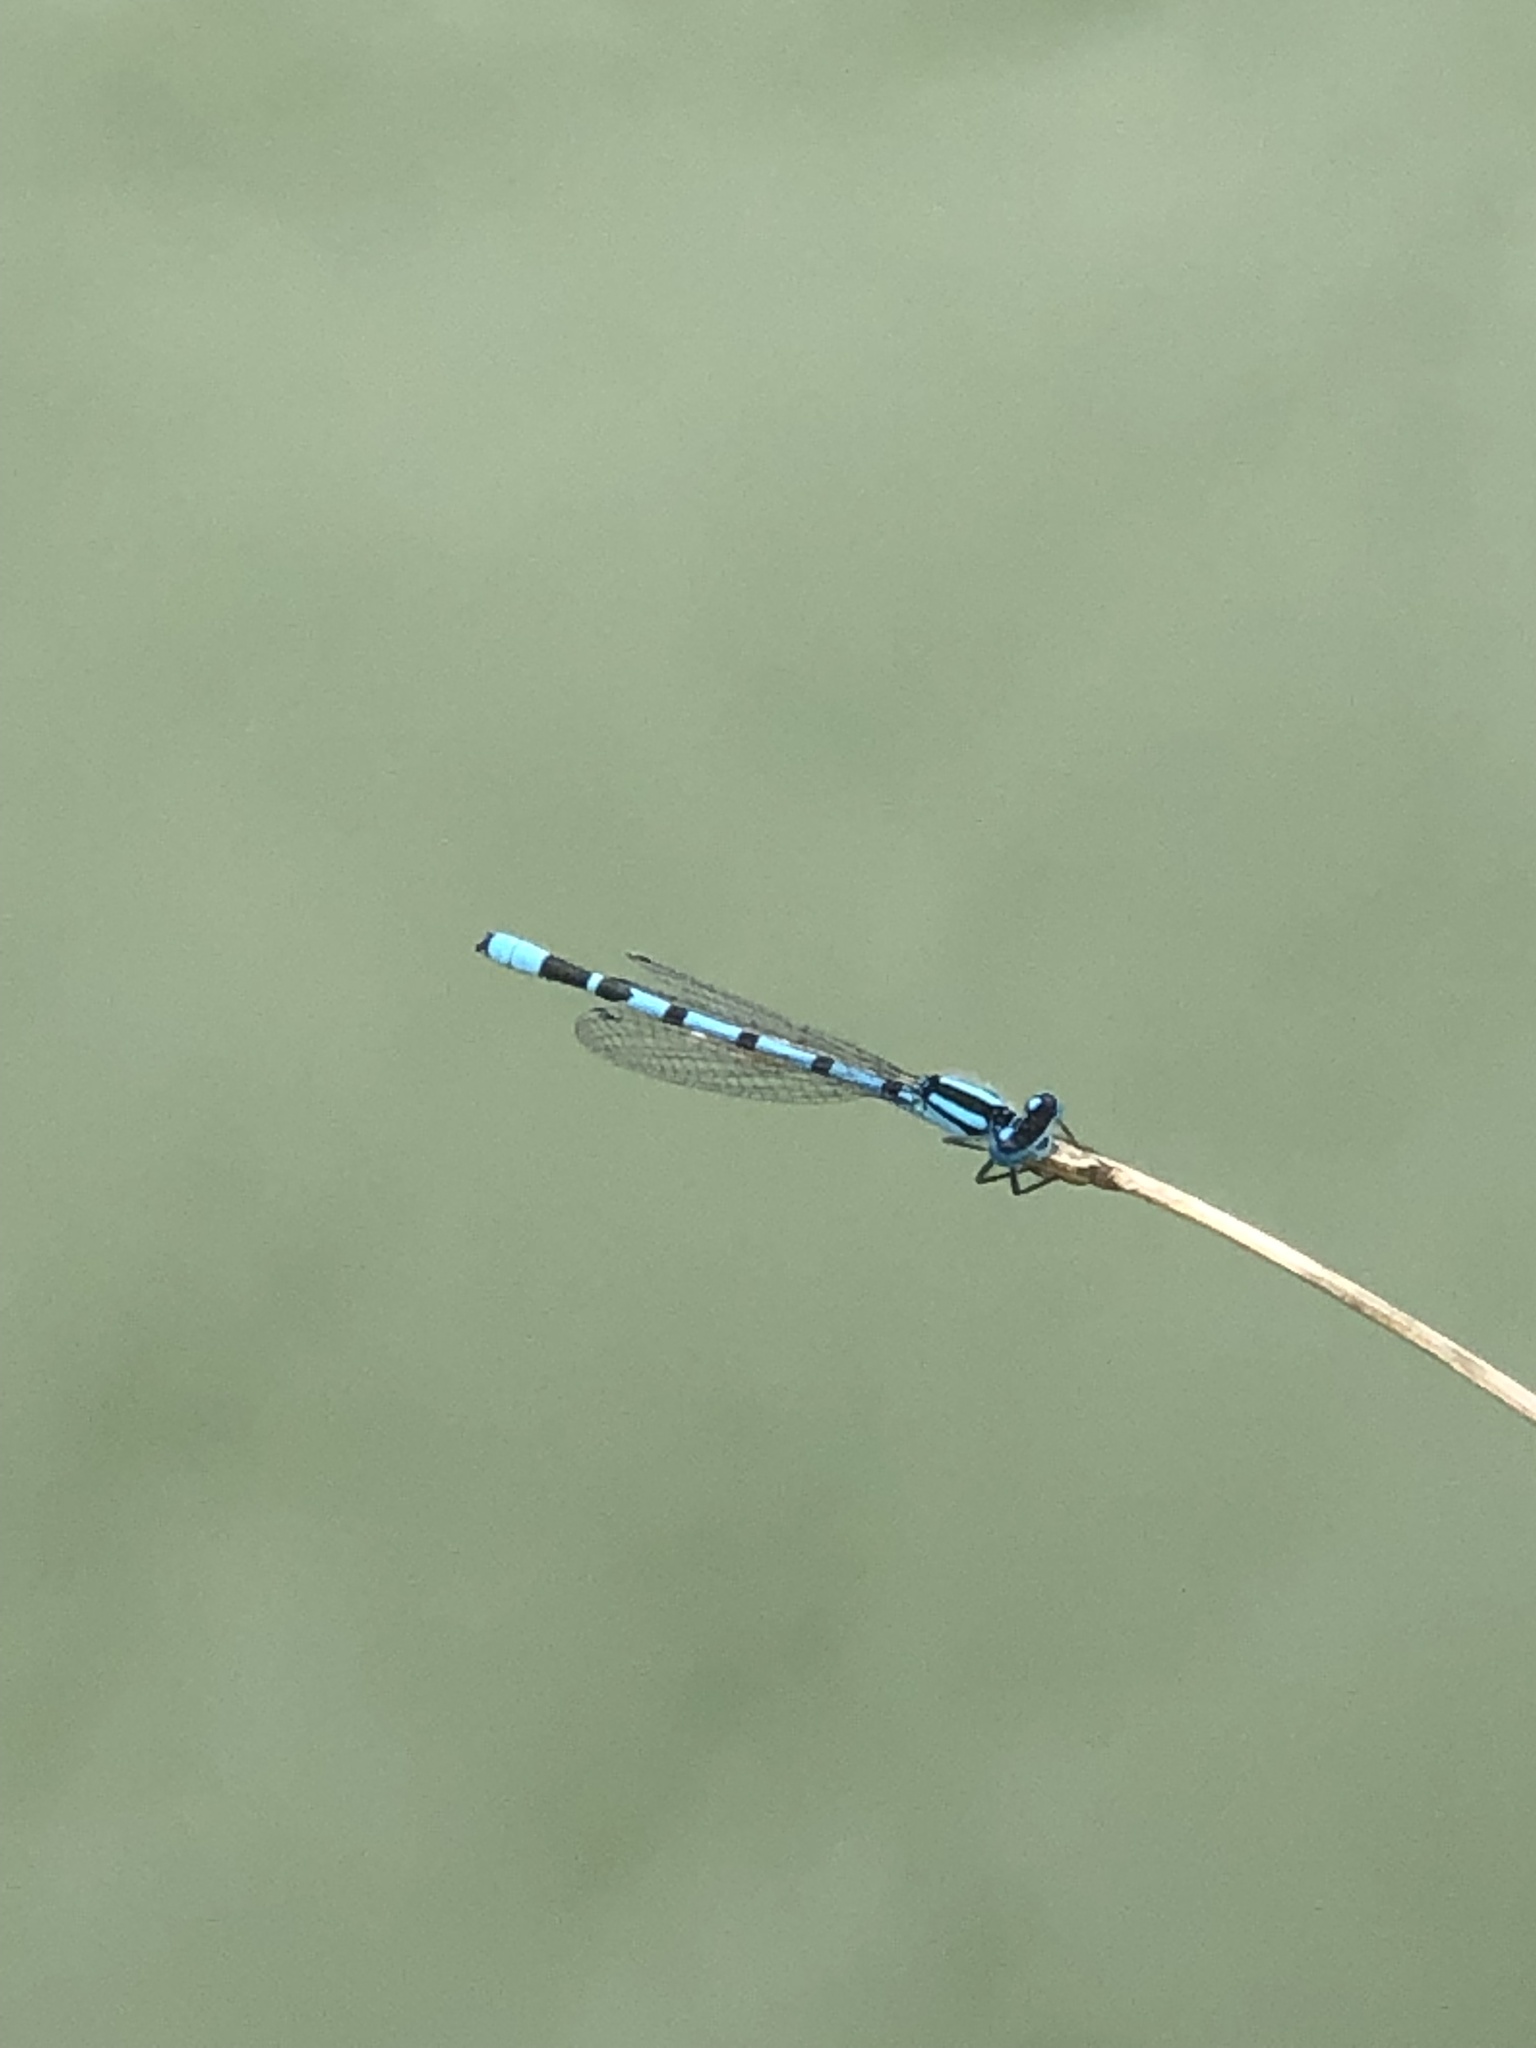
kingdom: Animalia
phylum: Arthropoda
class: Insecta
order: Odonata
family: Coenagrionidae
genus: Enallagma
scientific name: Enallagma cyathigerum
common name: Common blue damselfly
